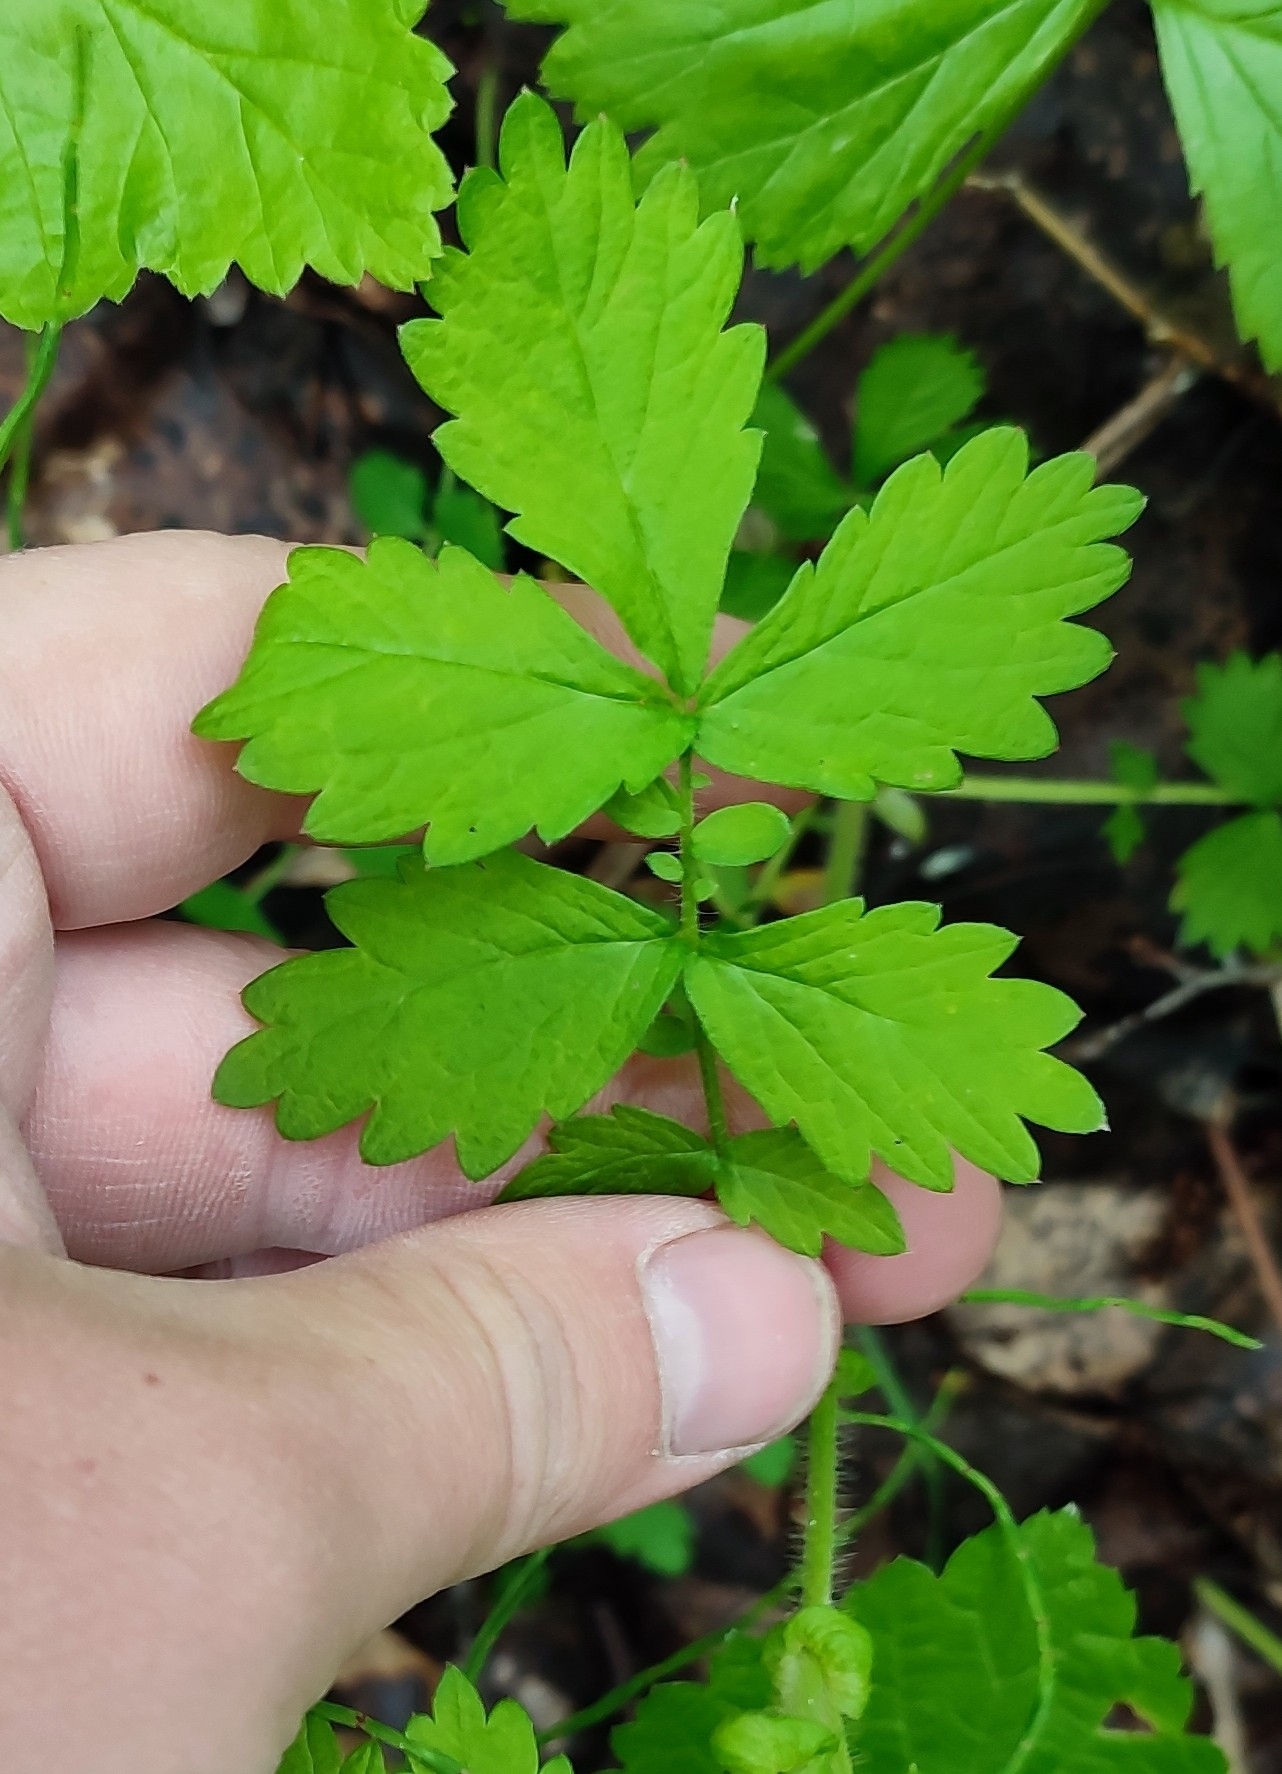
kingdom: Plantae
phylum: Tracheophyta
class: Magnoliopsida
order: Rosales
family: Rosaceae
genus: Agrimonia
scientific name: Agrimonia pilosa
